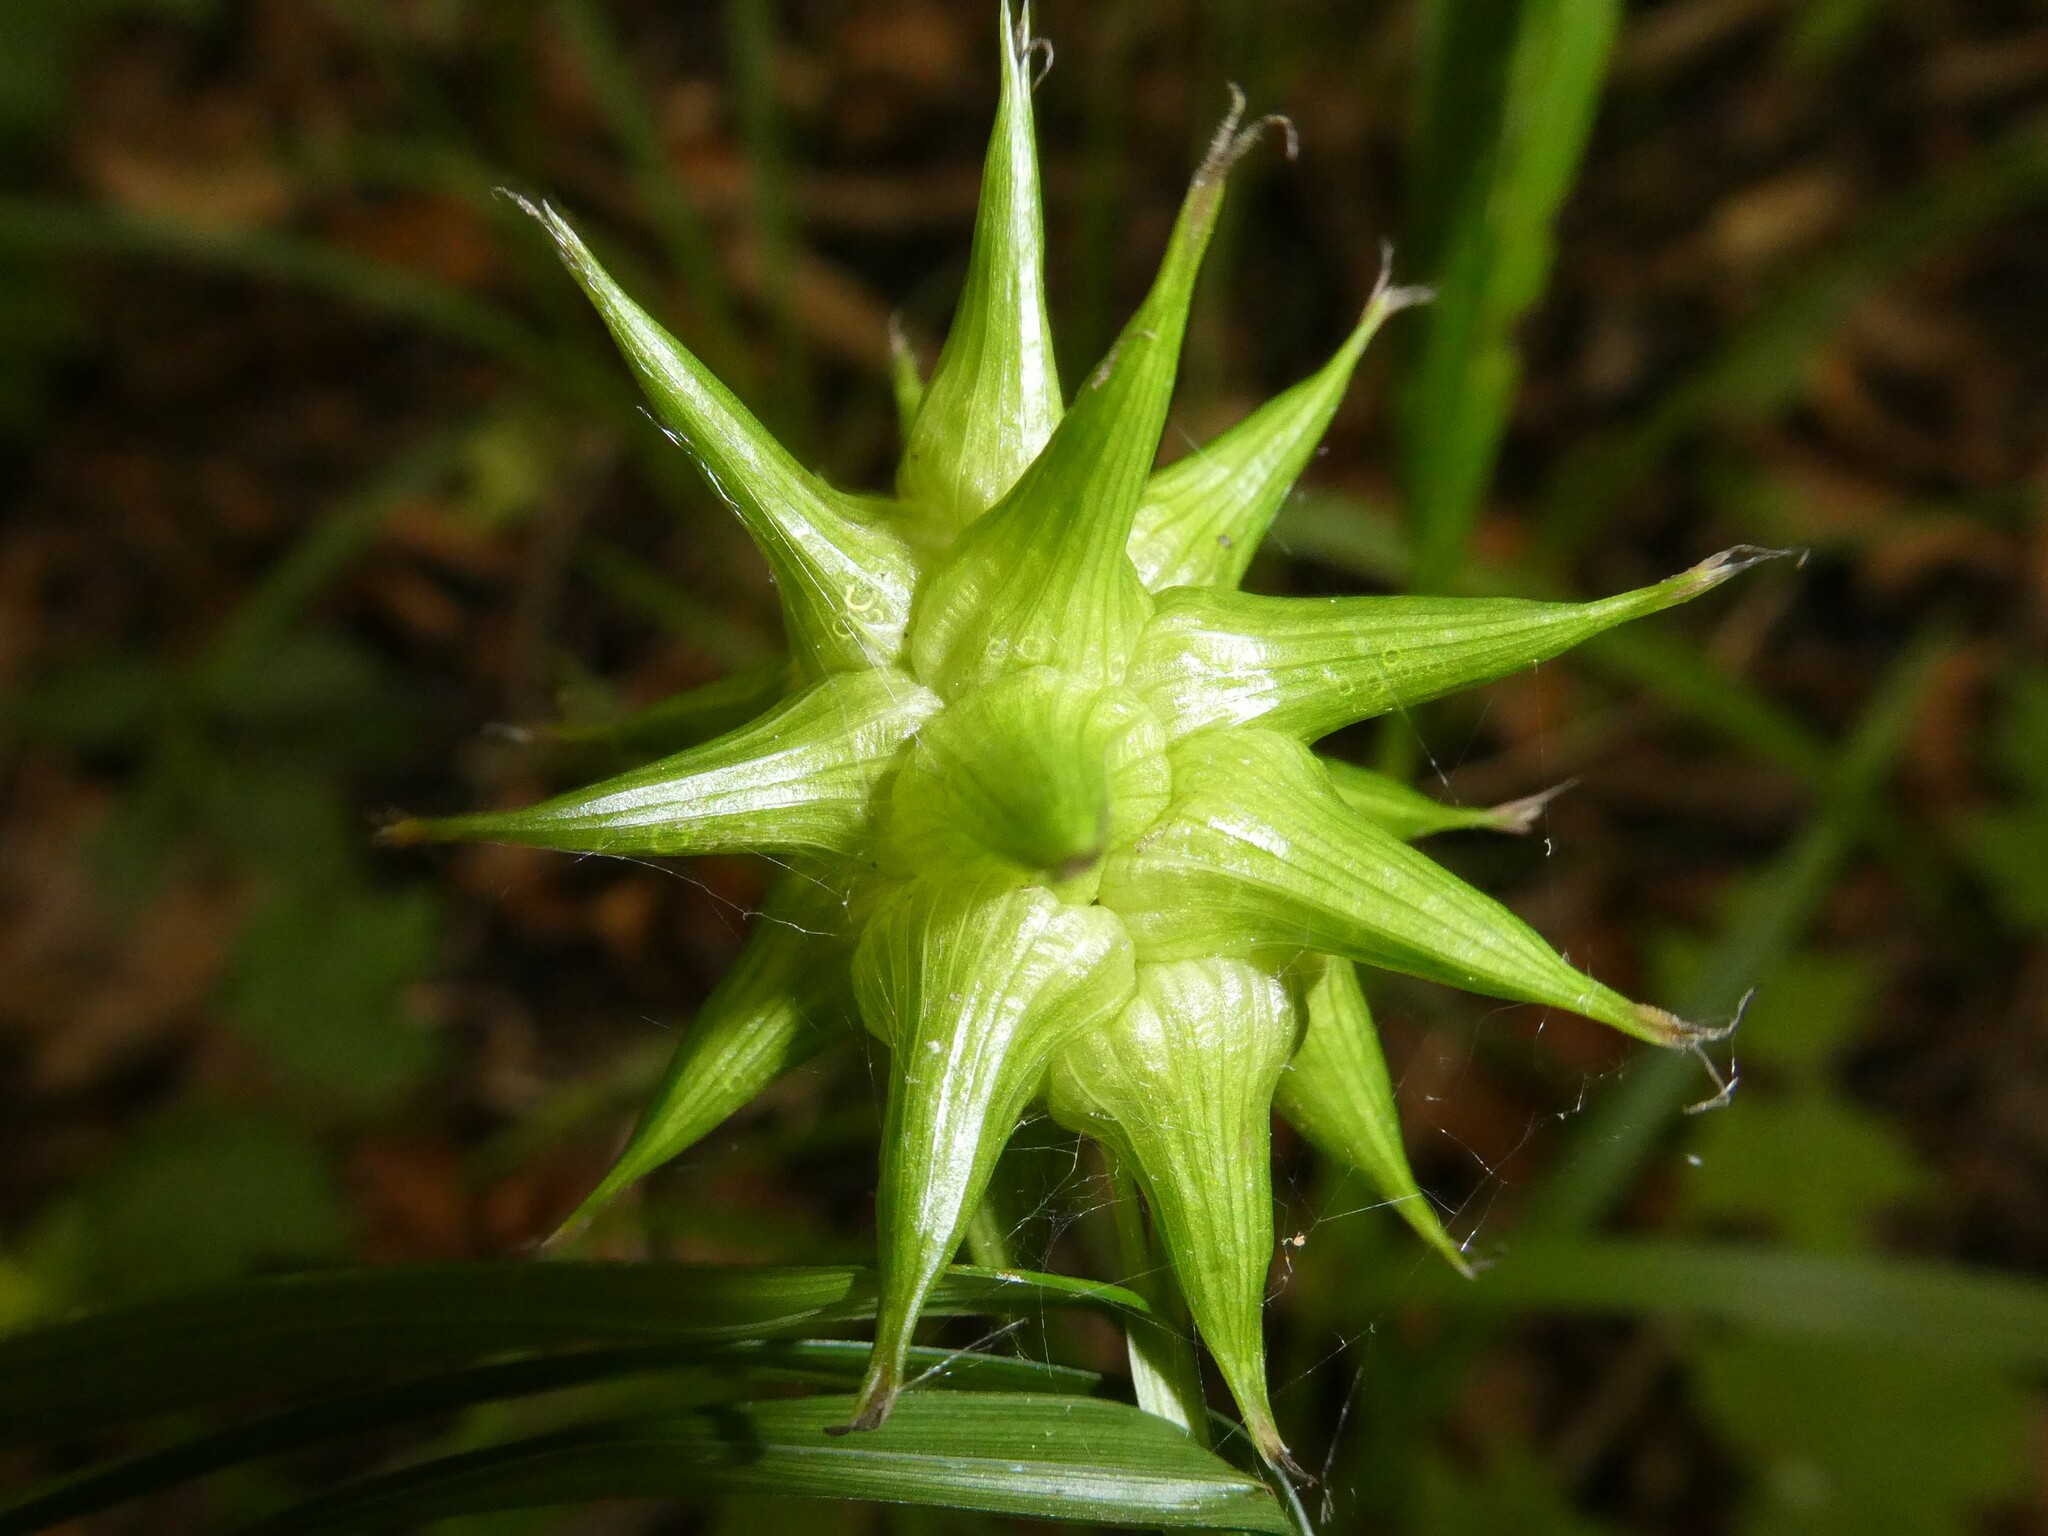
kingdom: Plantae
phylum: Tracheophyta
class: Liliopsida
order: Poales
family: Cyperaceae
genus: Carex
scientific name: Carex grayi
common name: Asa gray's sedge
